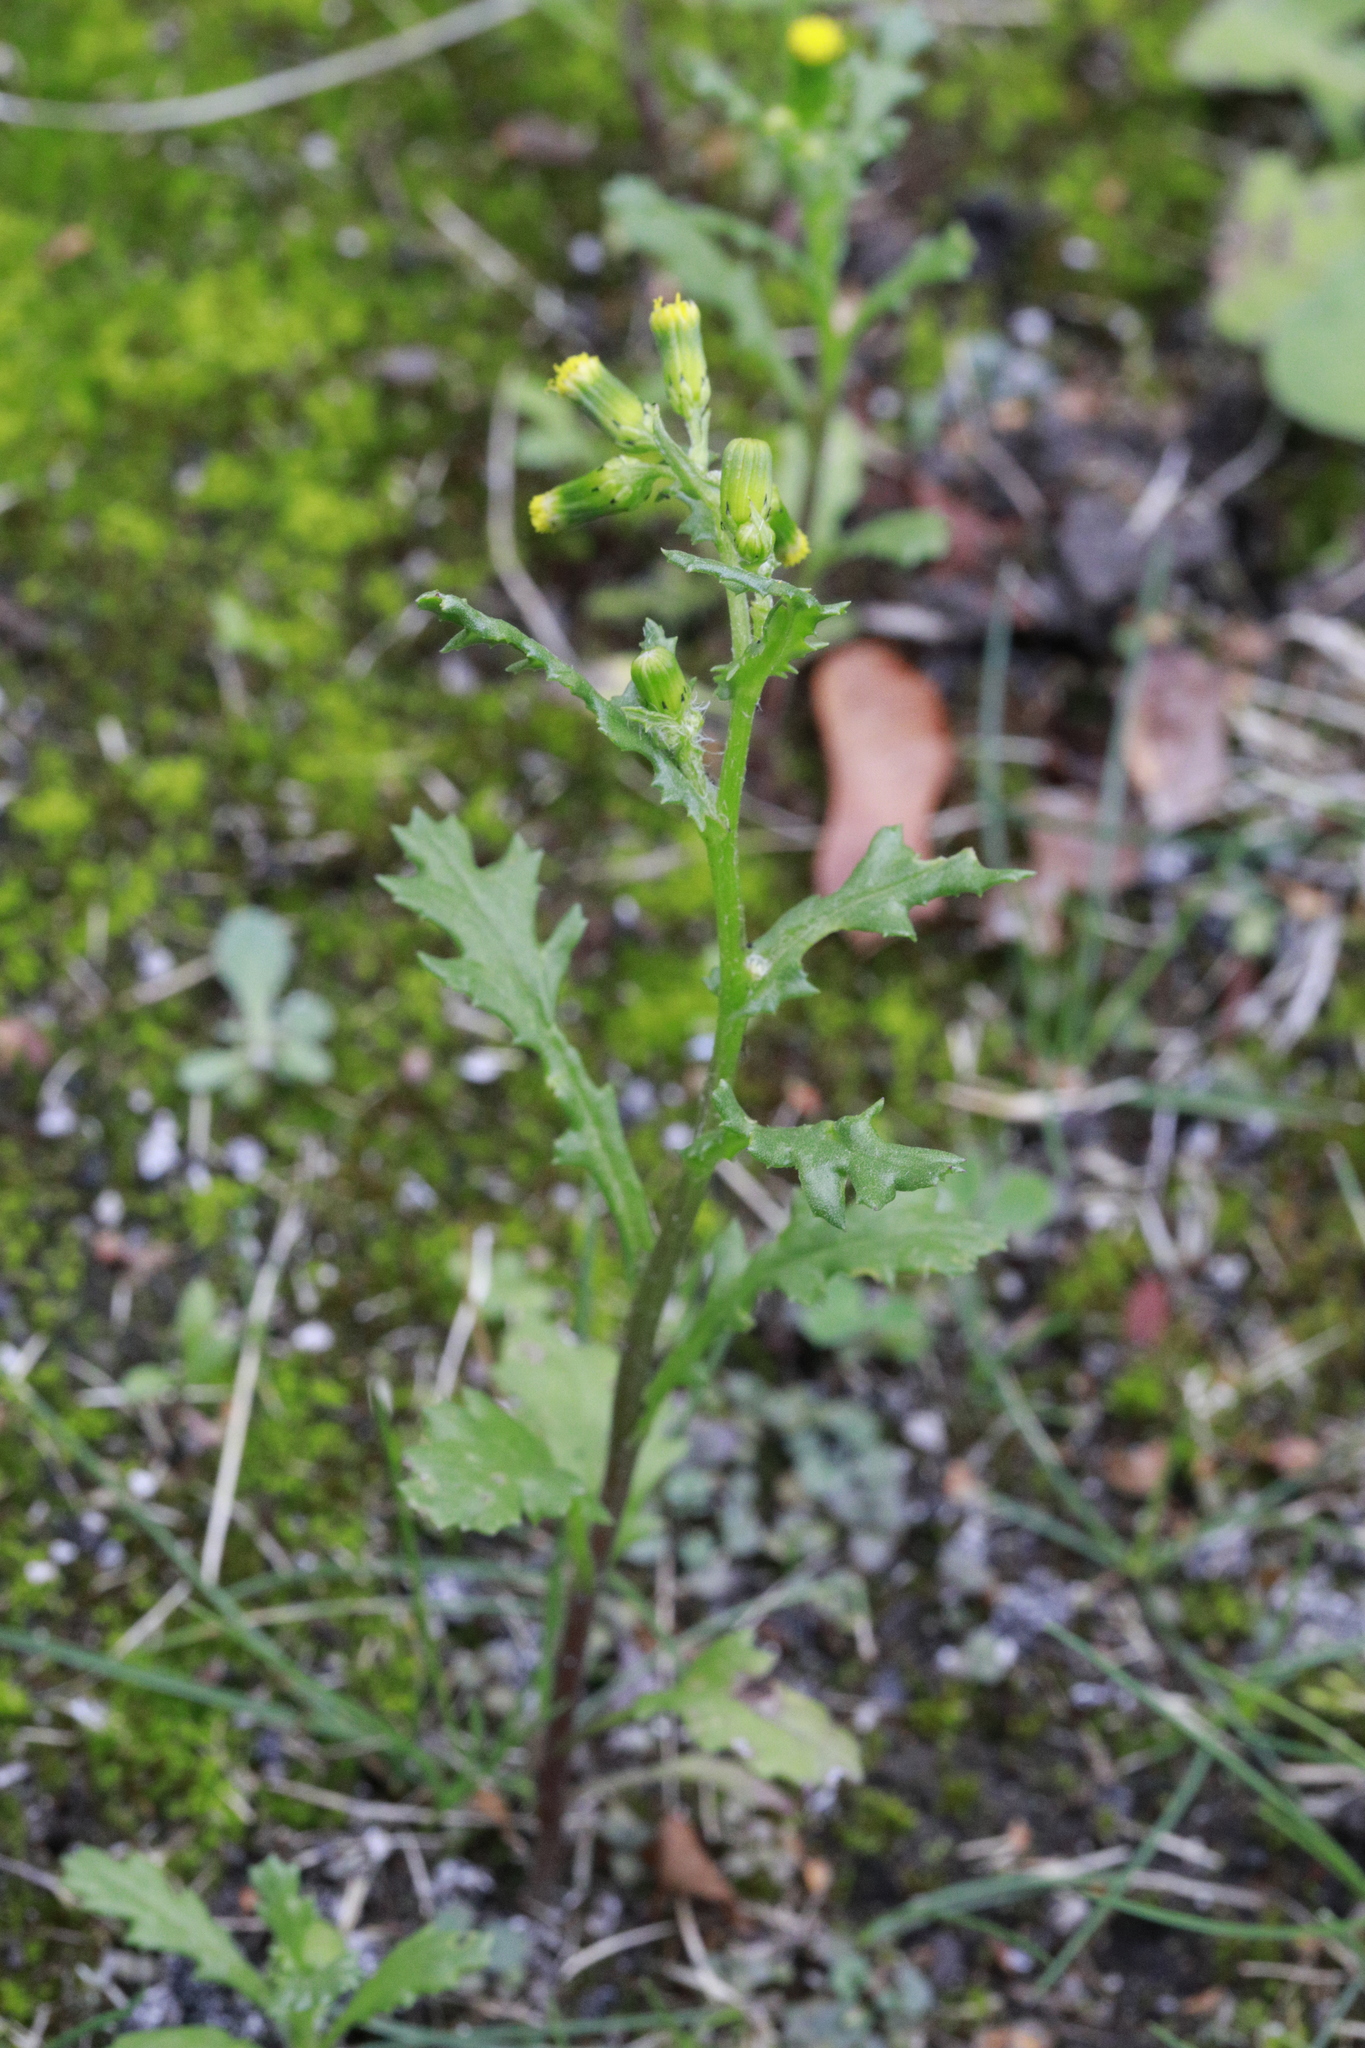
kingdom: Plantae
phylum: Tracheophyta
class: Magnoliopsida
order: Asterales
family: Asteraceae
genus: Senecio
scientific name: Senecio vulgaris
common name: Old-man-in-the-spring
